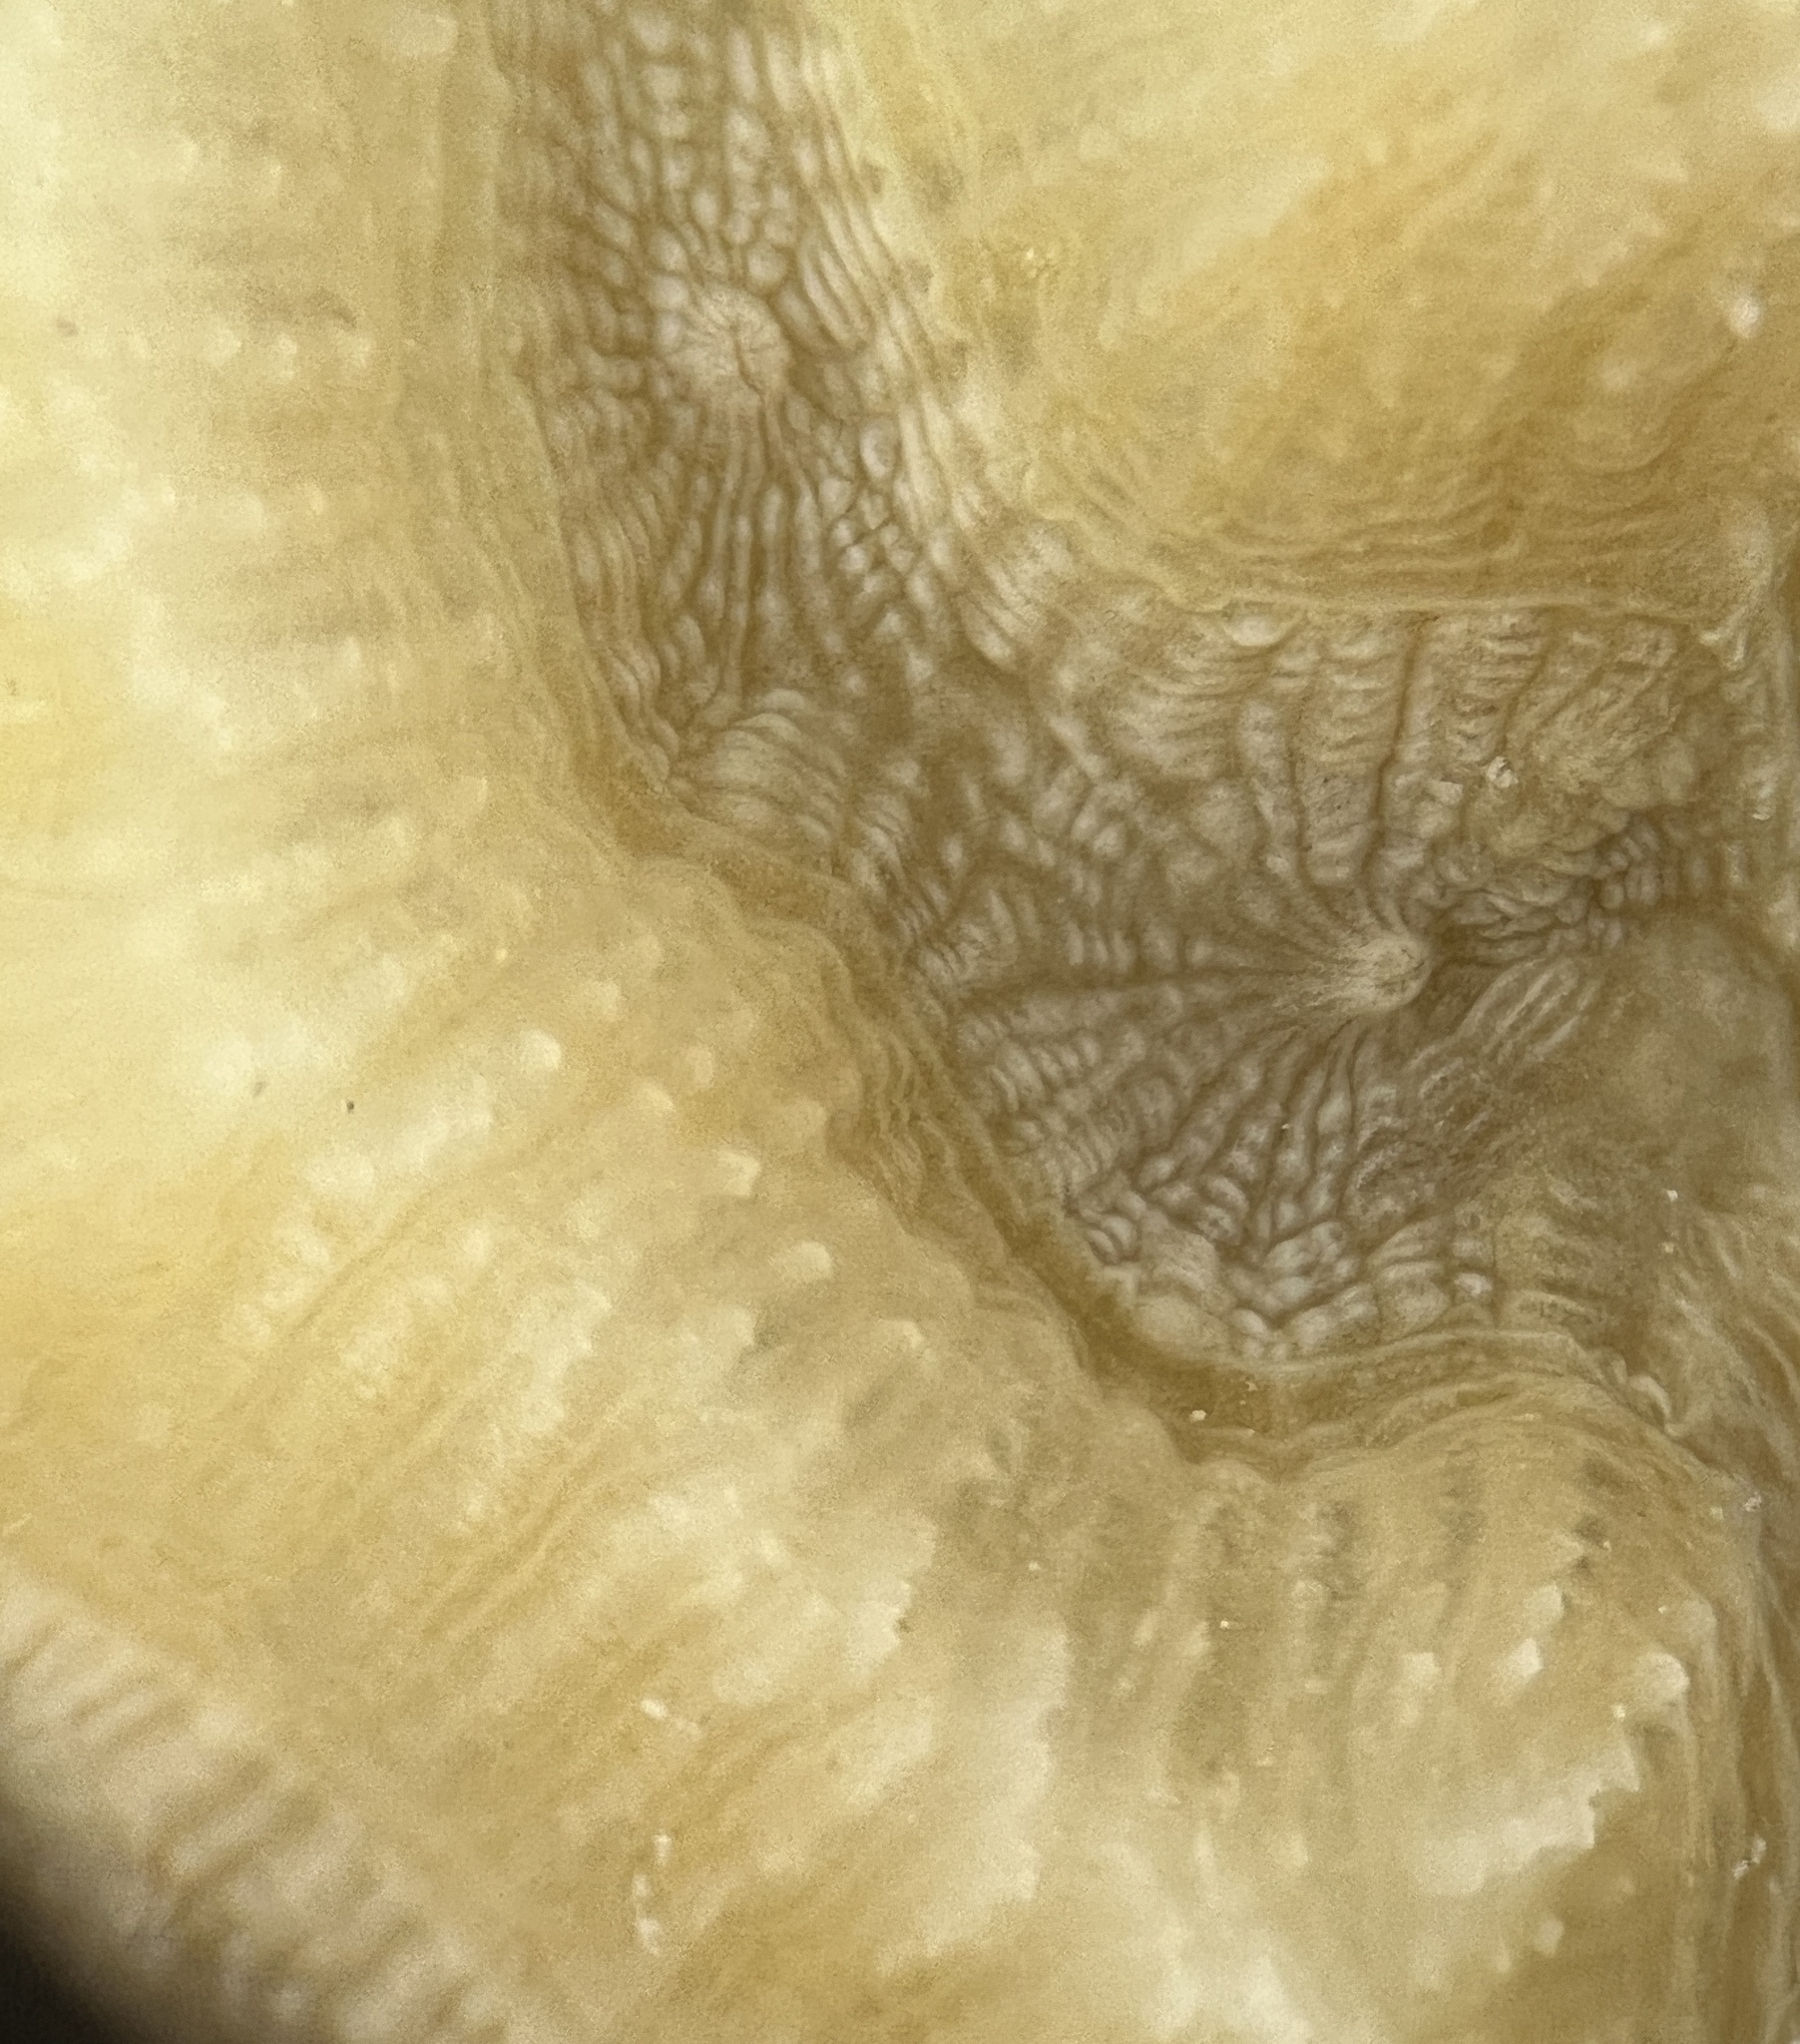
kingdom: Animalia
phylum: Cnidaria
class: Anthozoa
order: Scleractinia
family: Faviidae
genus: Pseudodiploria
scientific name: Pseudodiploria strigosa
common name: Symmetrical brain coral
